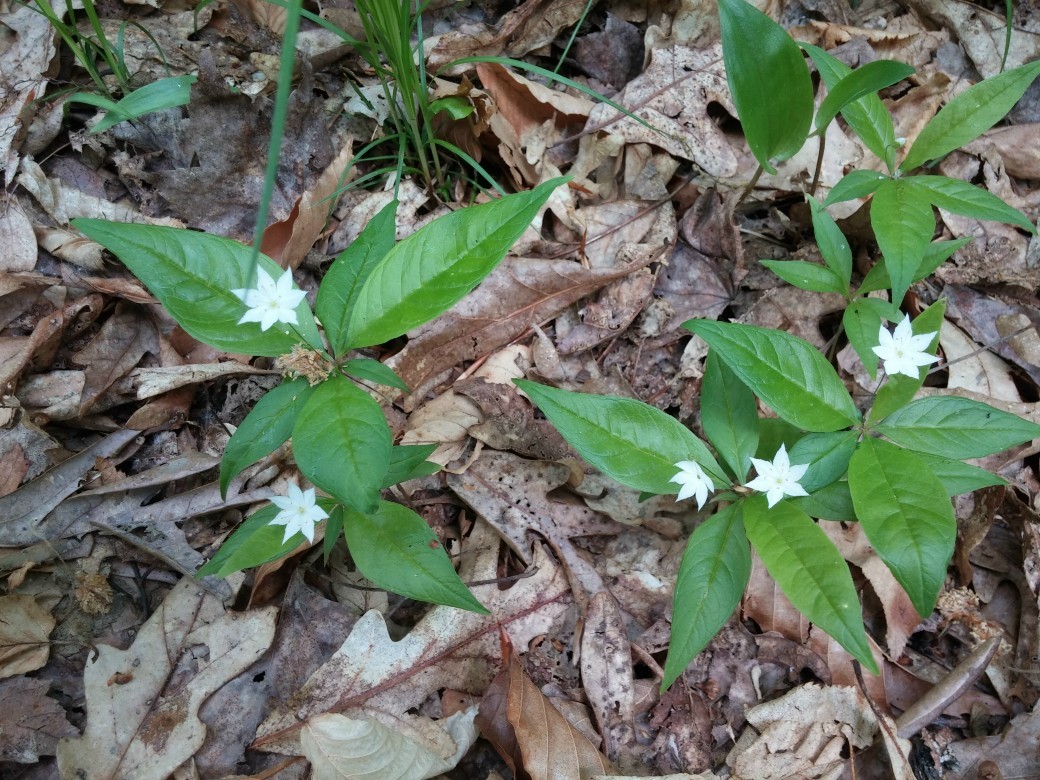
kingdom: Plantae
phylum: Tracheophyta
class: Magnoliopsida
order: Ericales
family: Primulaceae
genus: Lysimachia
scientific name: Lysimachia borealis
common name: American starflower
